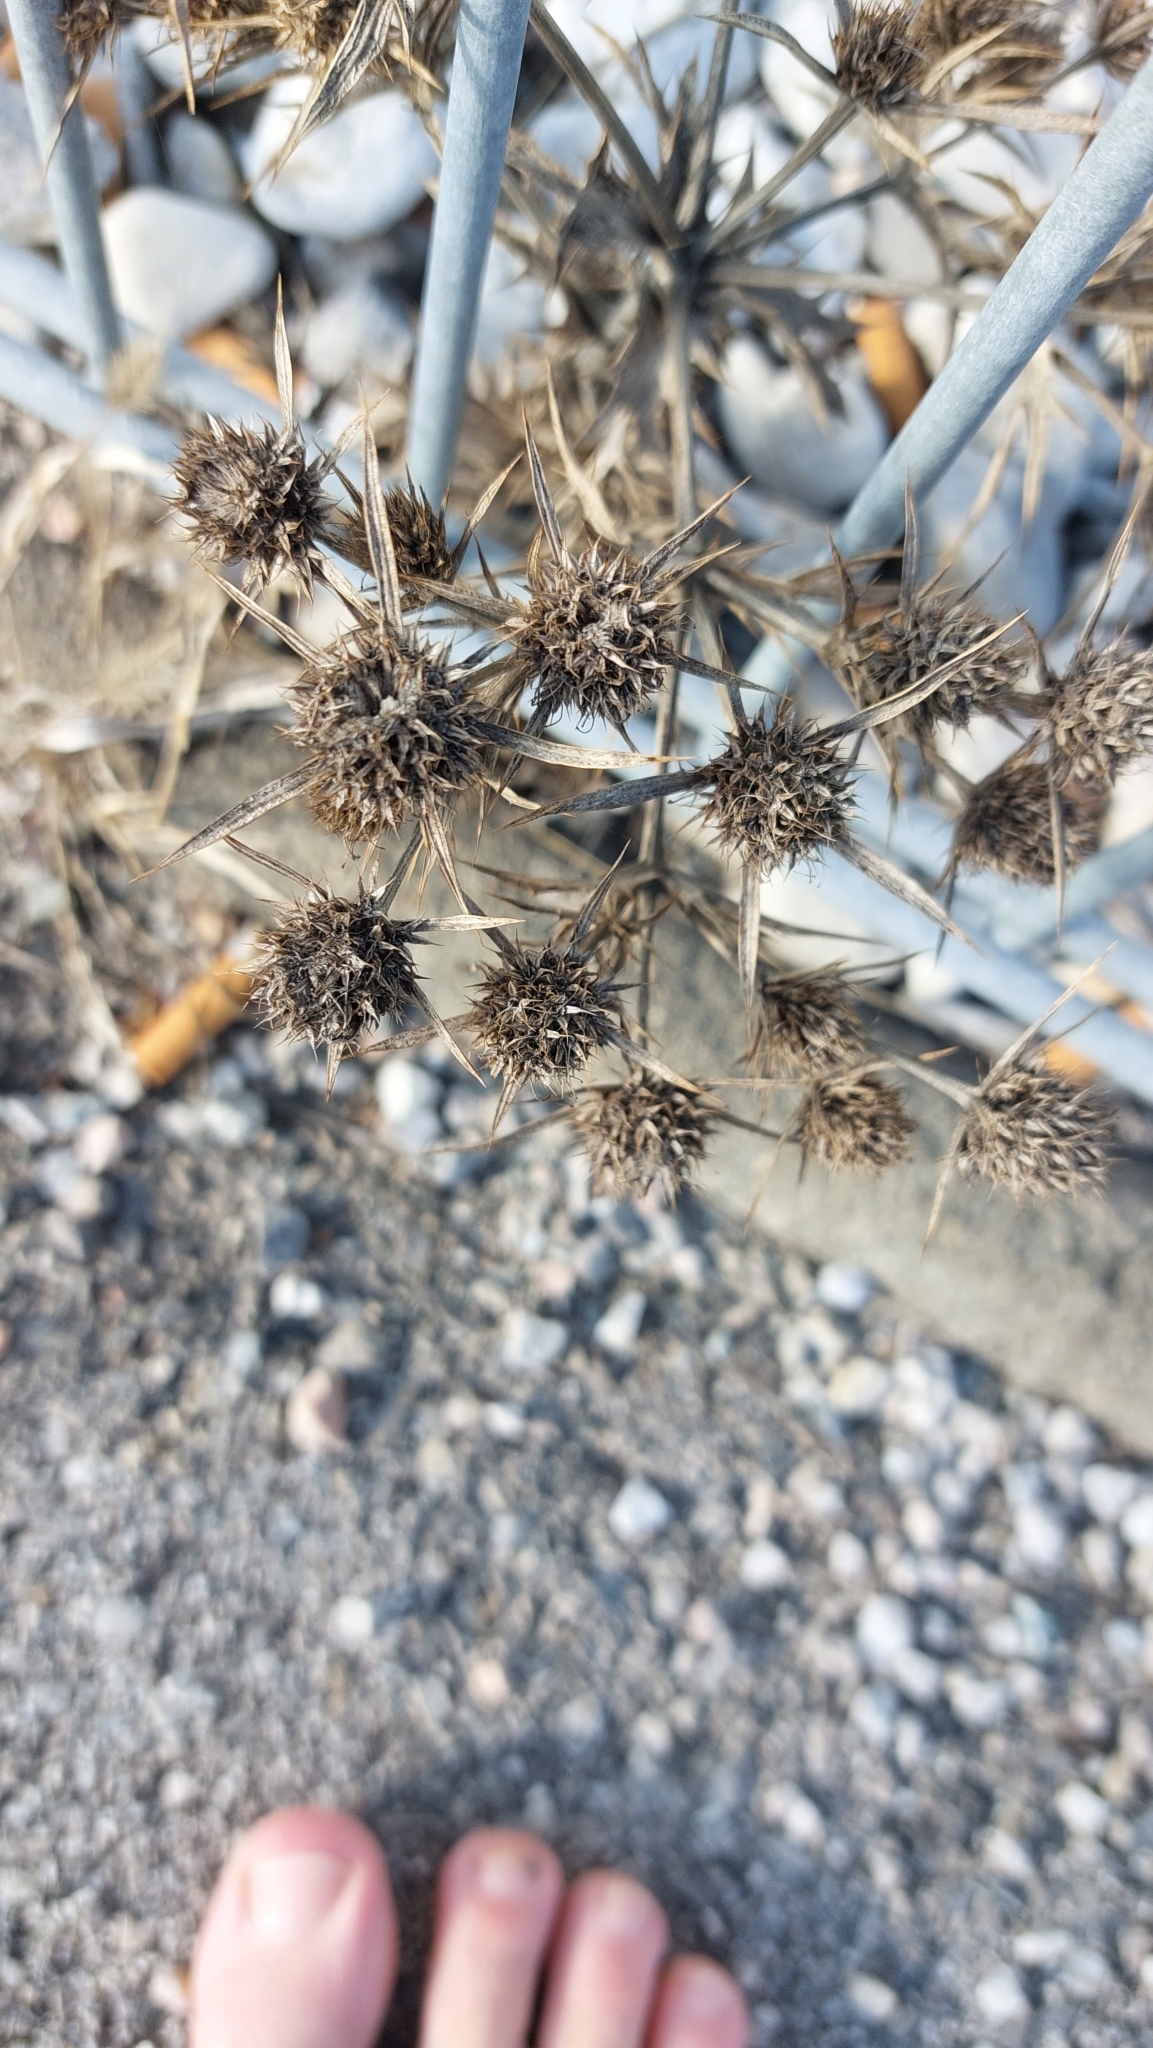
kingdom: Plantae
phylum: Tracheophyta
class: Magnoliopsida
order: Apiales
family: Apiaceae
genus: Eryngium
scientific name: Eryngium campestre
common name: Field eryngo
